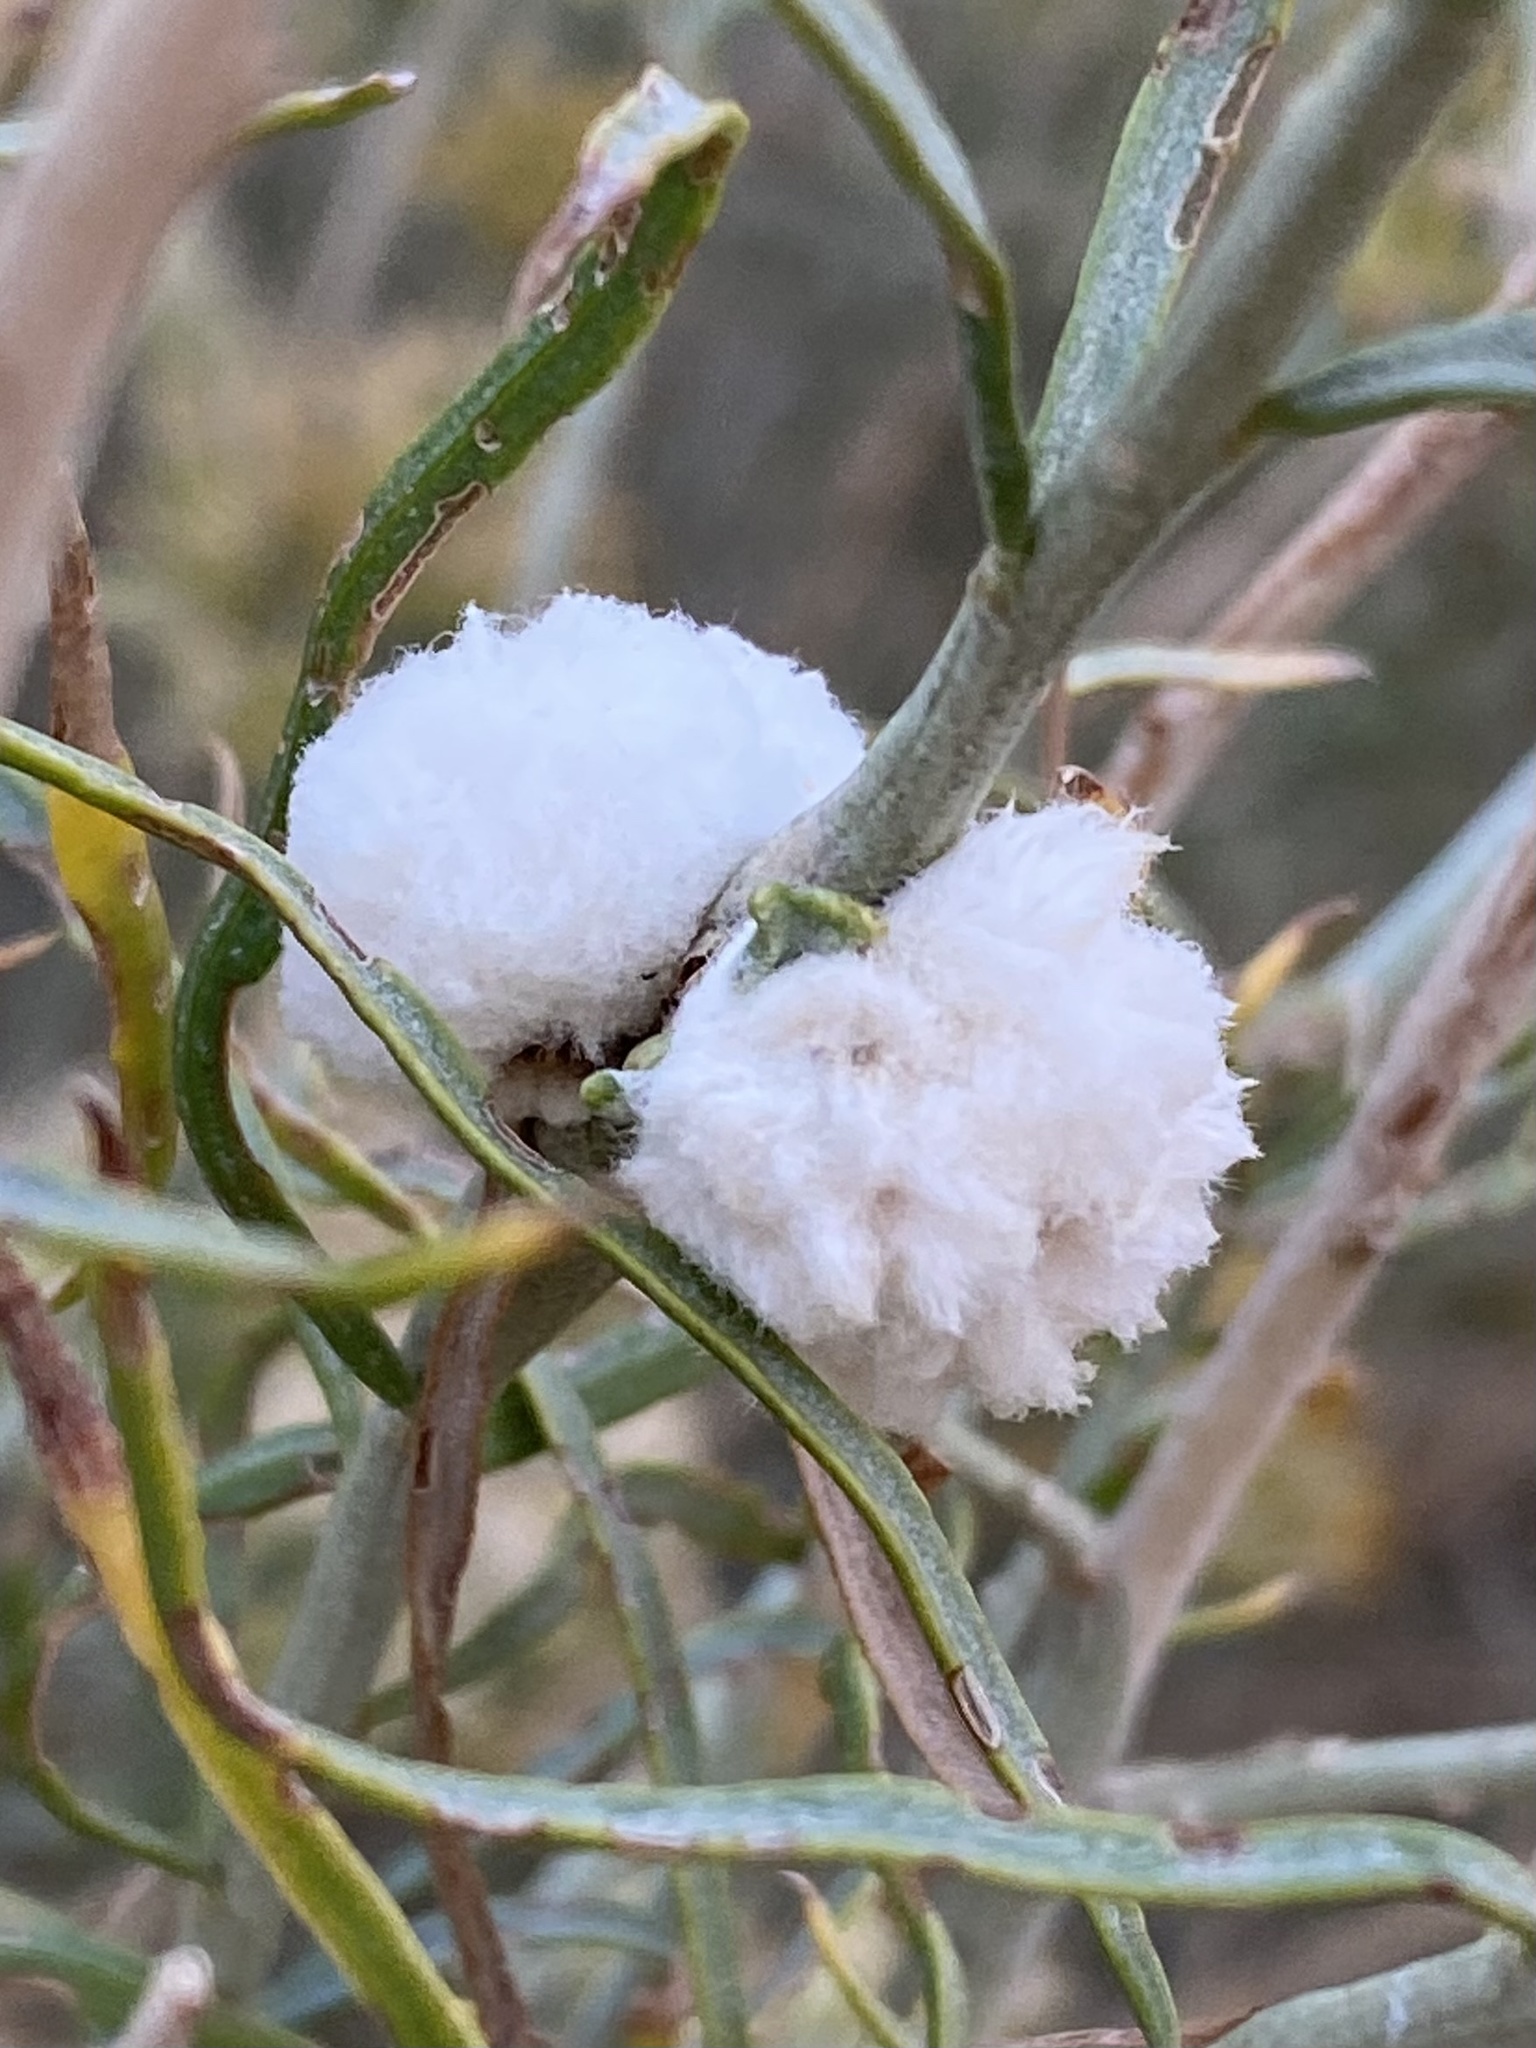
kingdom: Animalia
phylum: Arthropoda
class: Insecta
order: Diptera
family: Tephritidae
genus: Aciurina
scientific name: Aciurina bigeloviae
